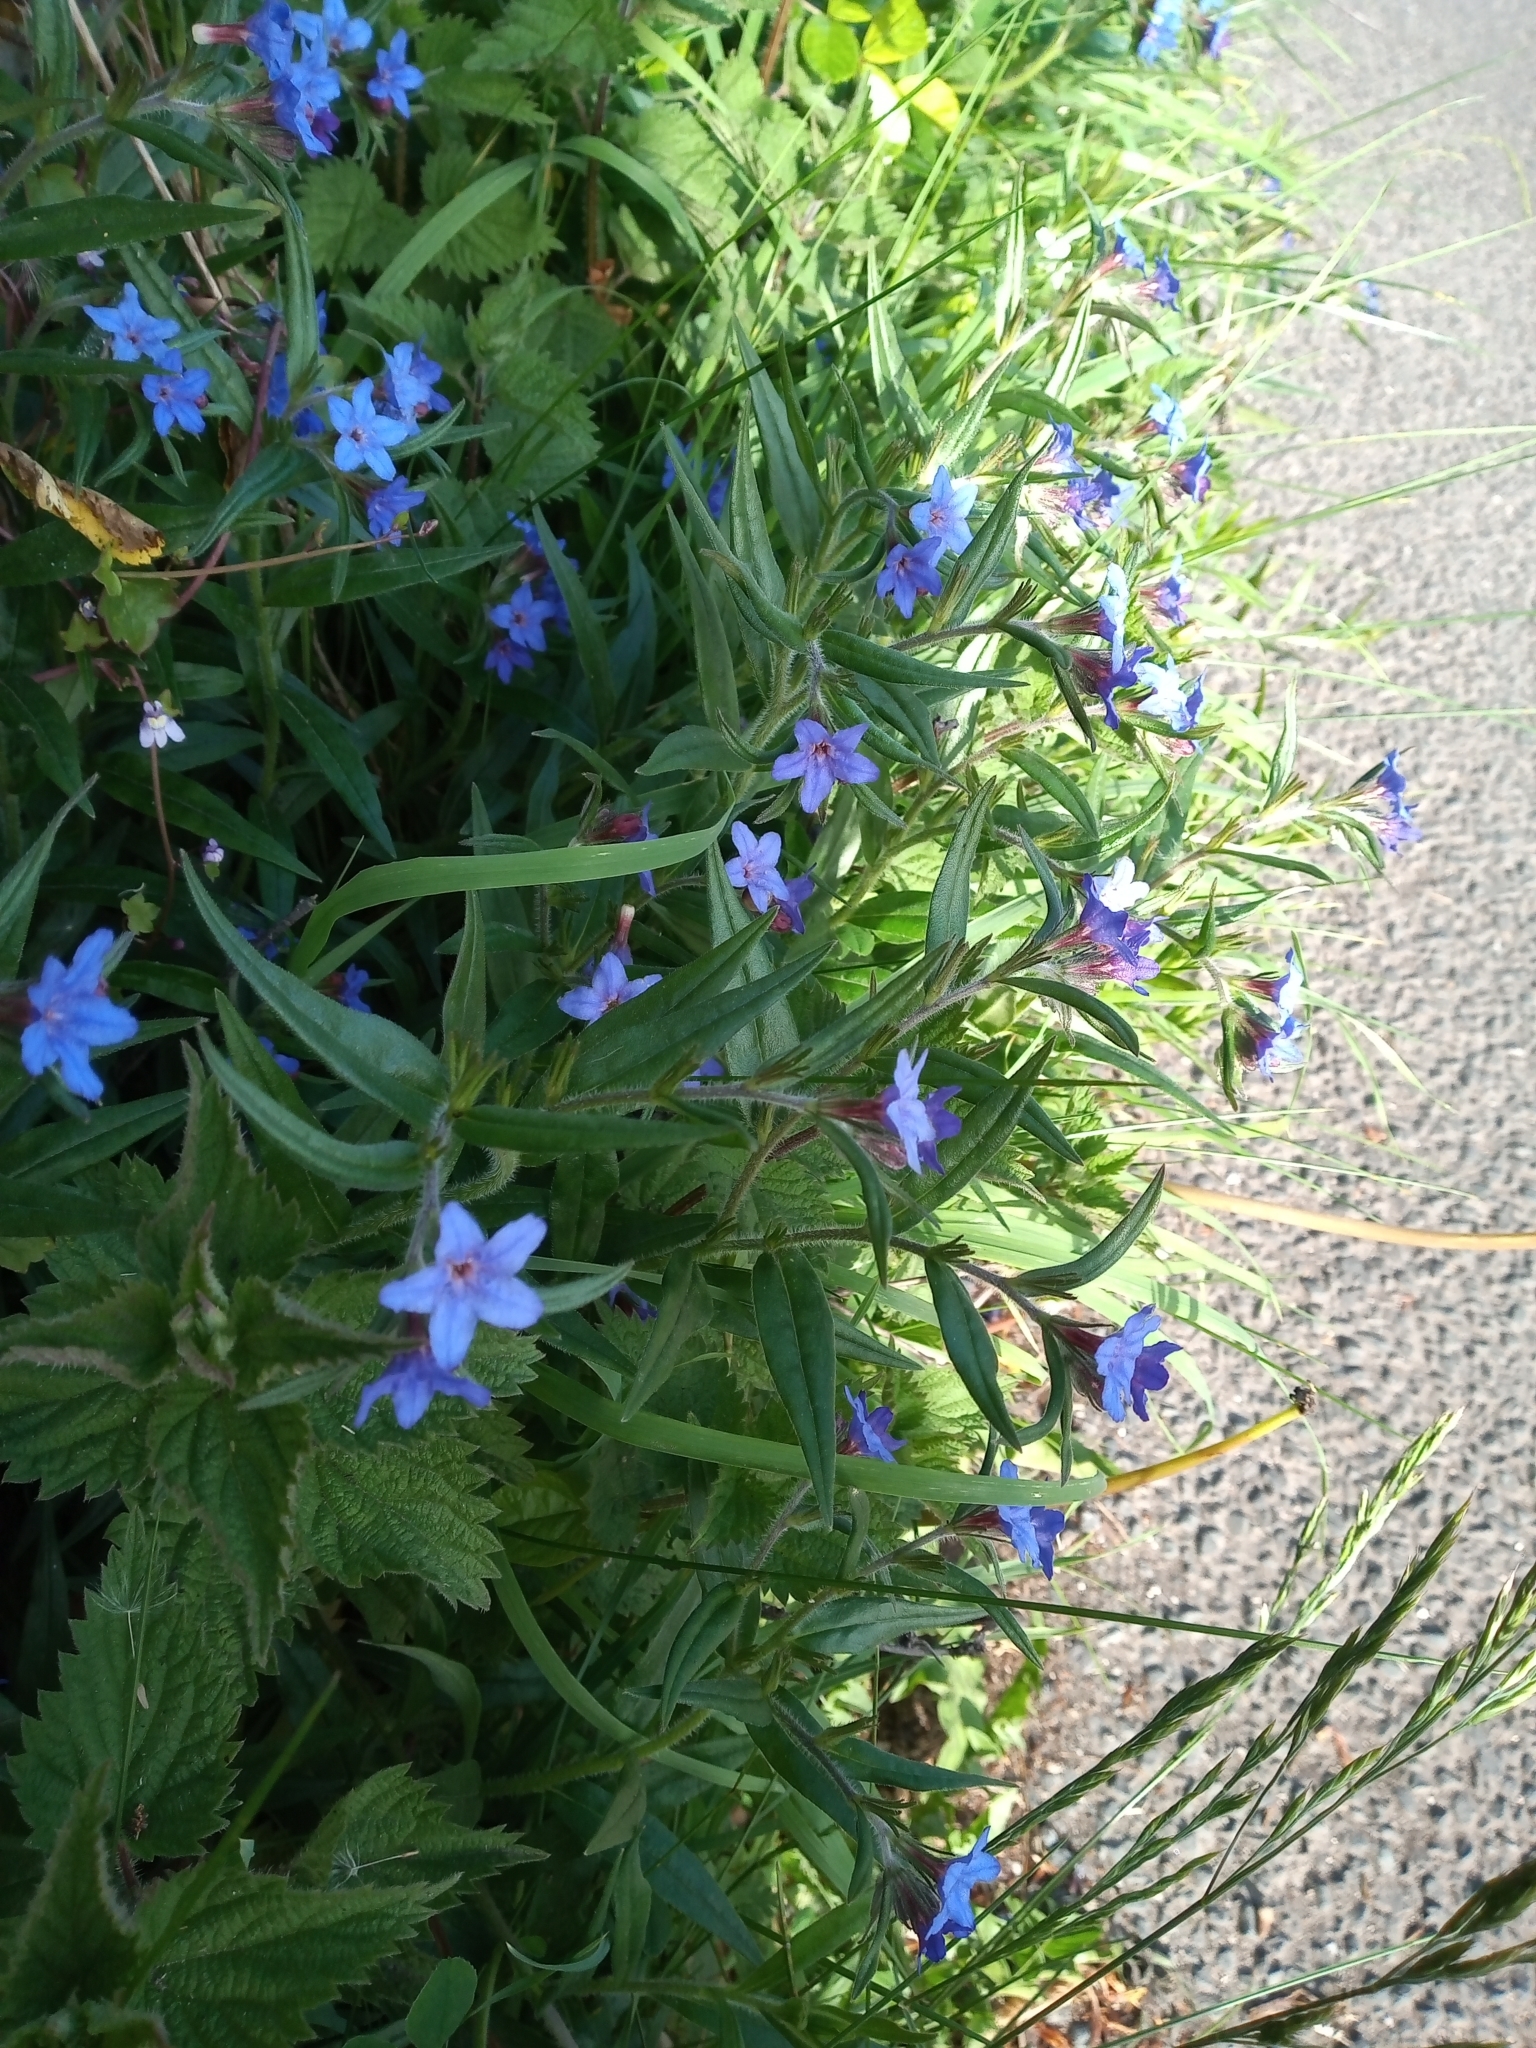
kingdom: Plantae
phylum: Tracheophyta
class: Magnoliopsida
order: Boraginales
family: Boraginaceae
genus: Aegonychon
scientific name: Aegonychon purpurocaeruleum
